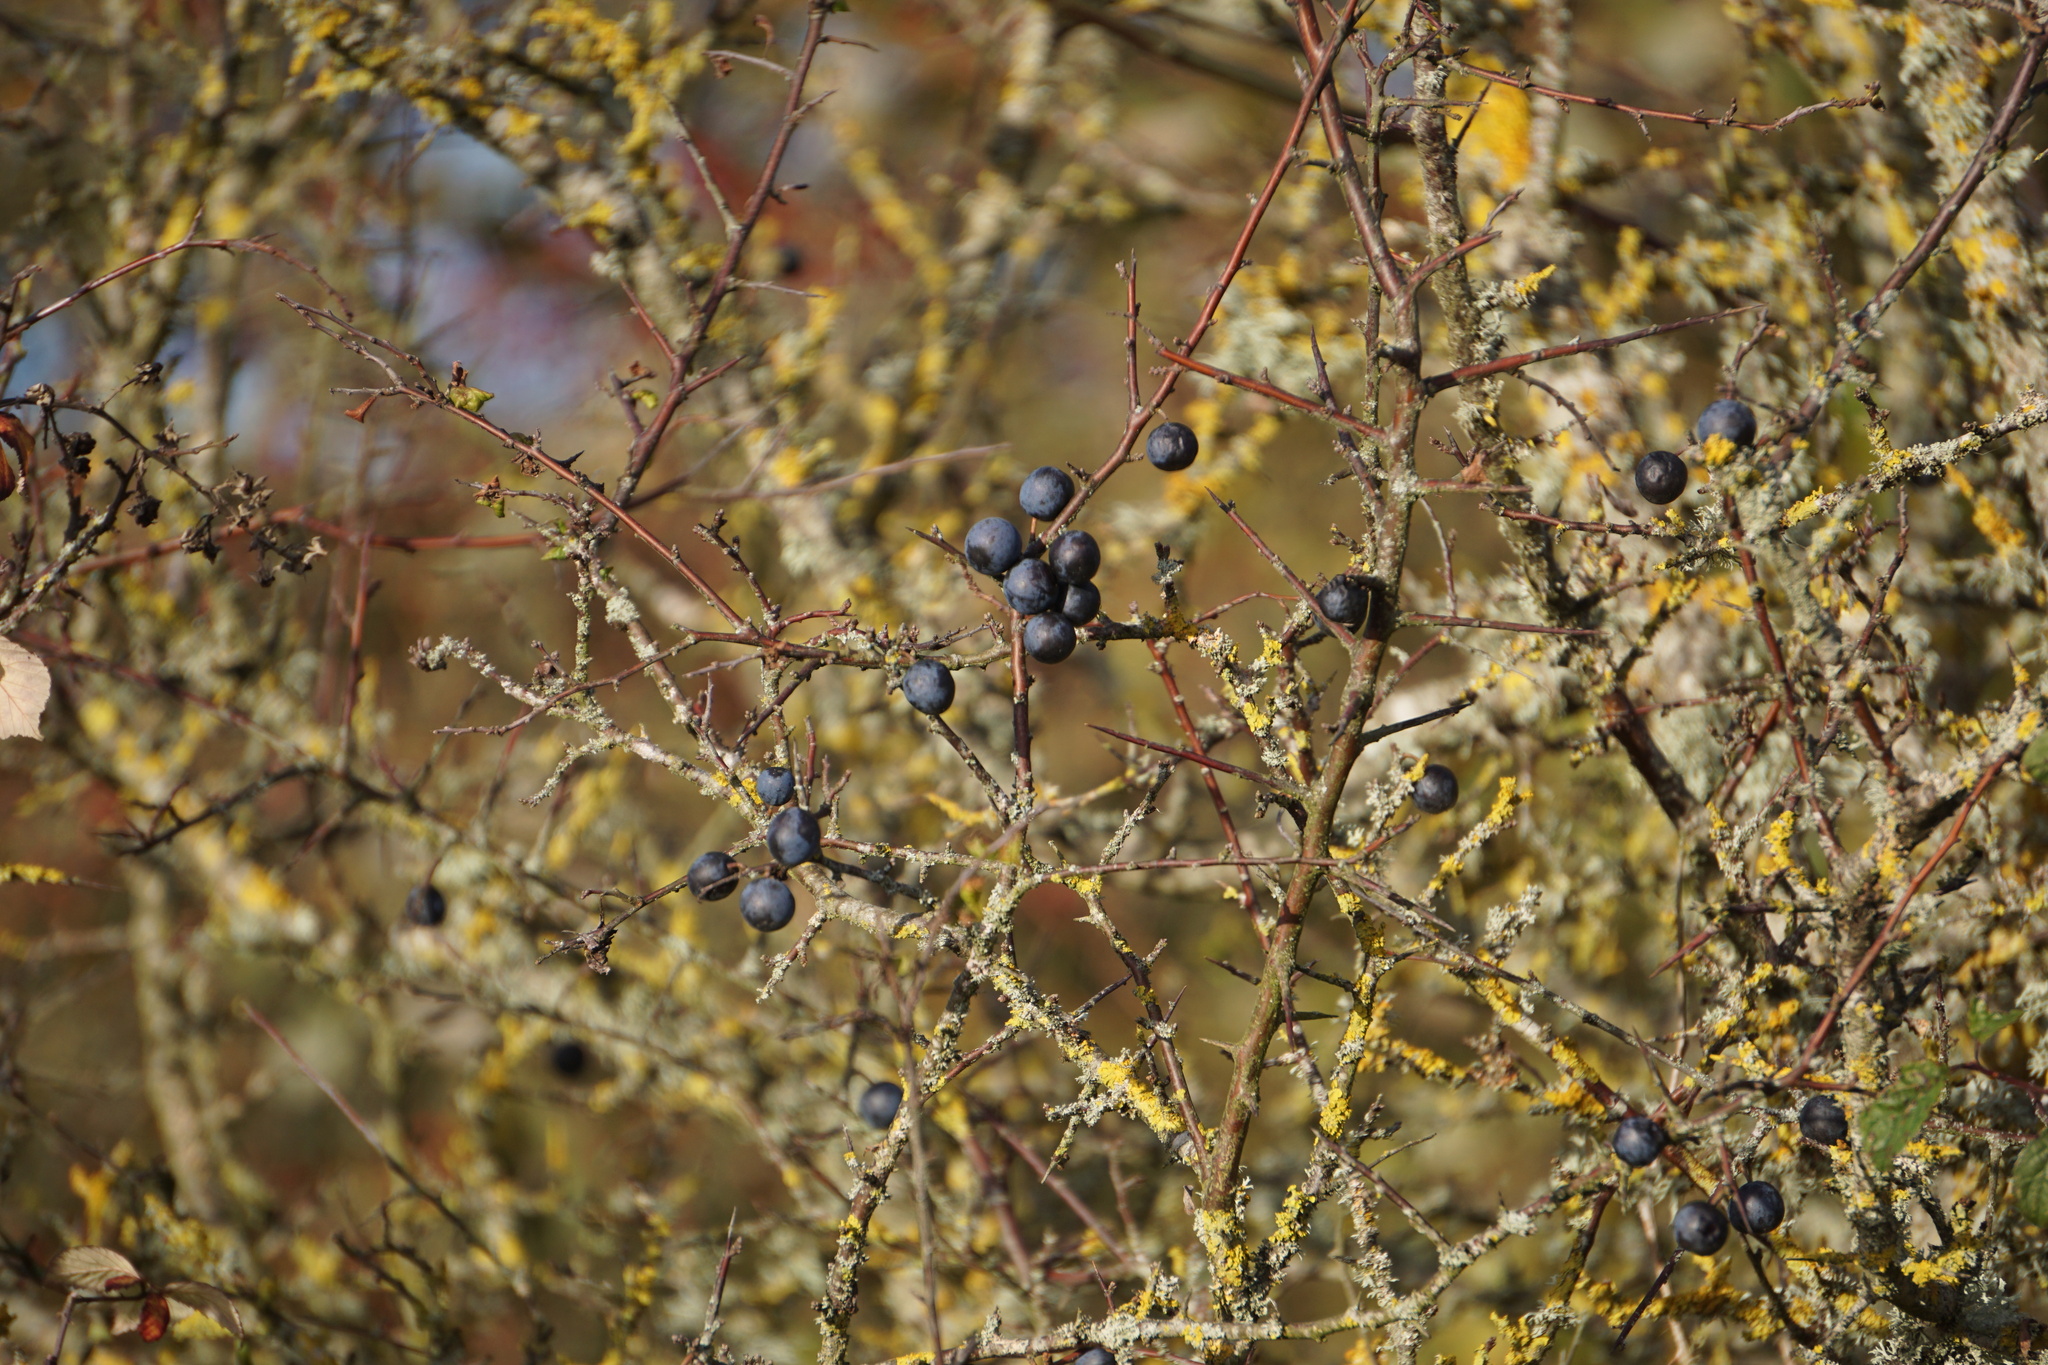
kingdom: Plantae
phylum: Tracheophyta
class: Magnoliopsida
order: Rosales
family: Rosaceae
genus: Prunus
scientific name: Prunus spinosa
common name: Blackthorn
